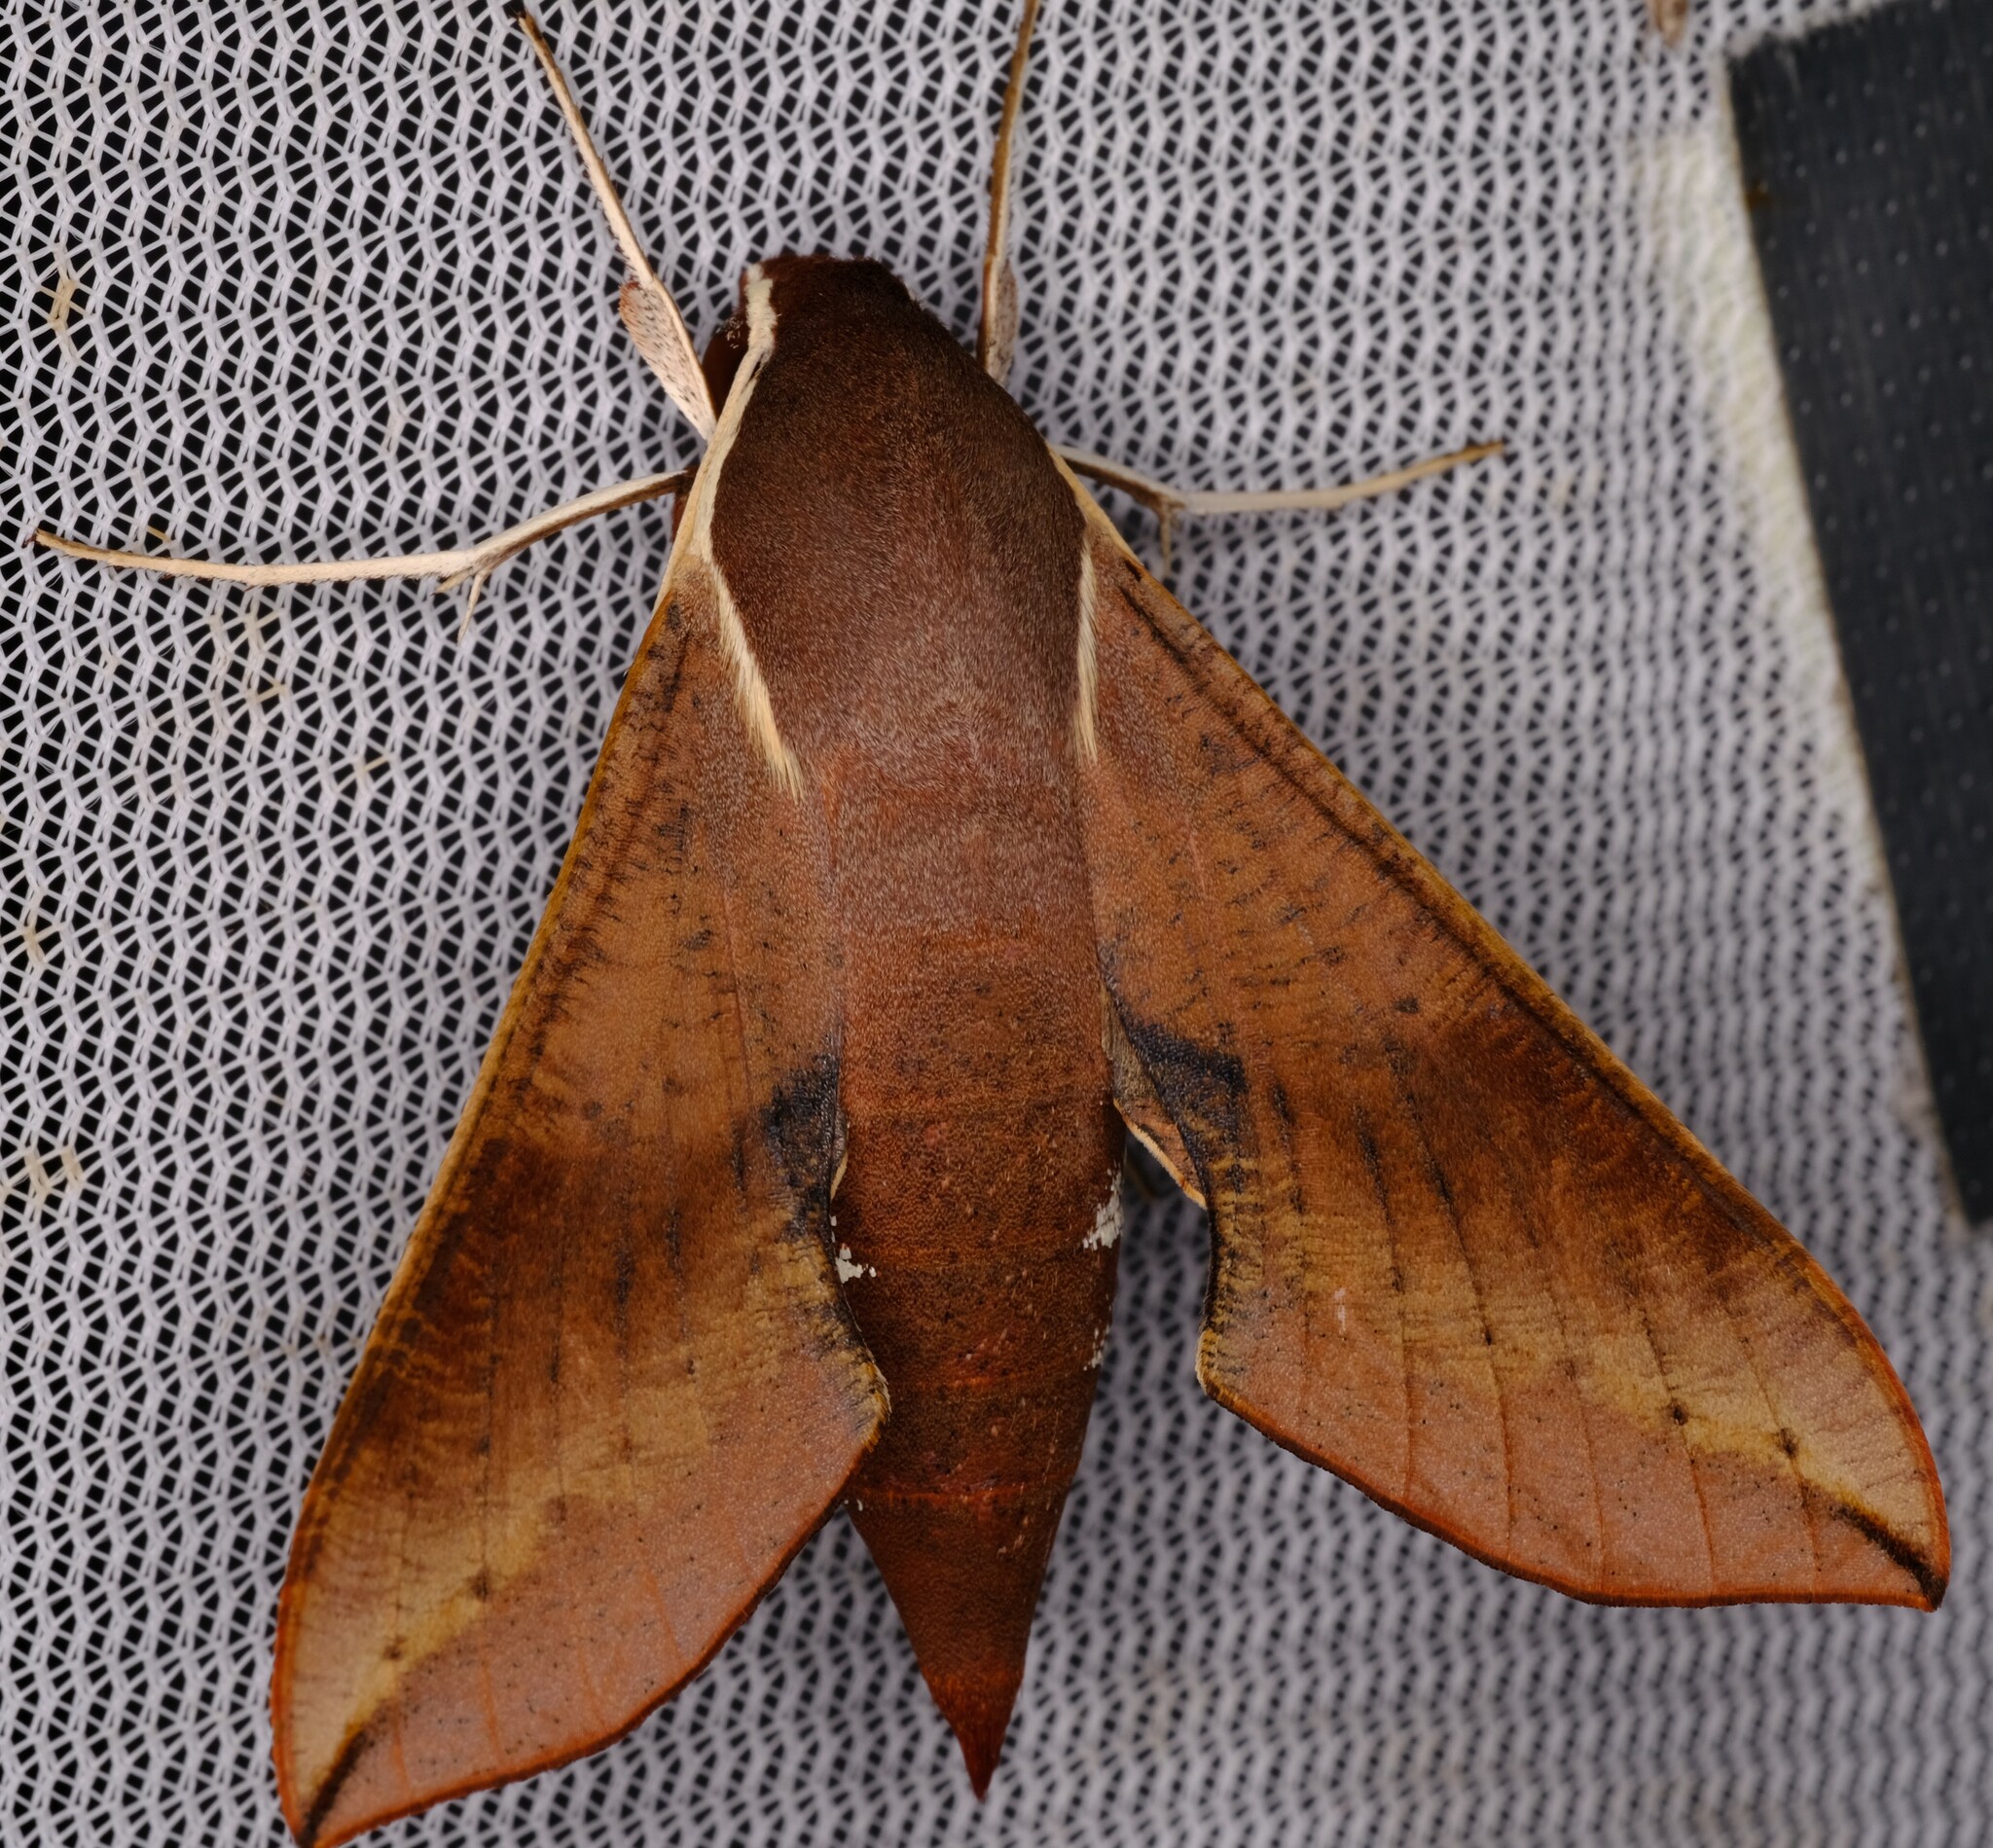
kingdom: Animalia
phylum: Arthropoda
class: Insecta
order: Lepidoptera
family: Sphingidae
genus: Hippotion
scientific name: Hippotion scrofa
